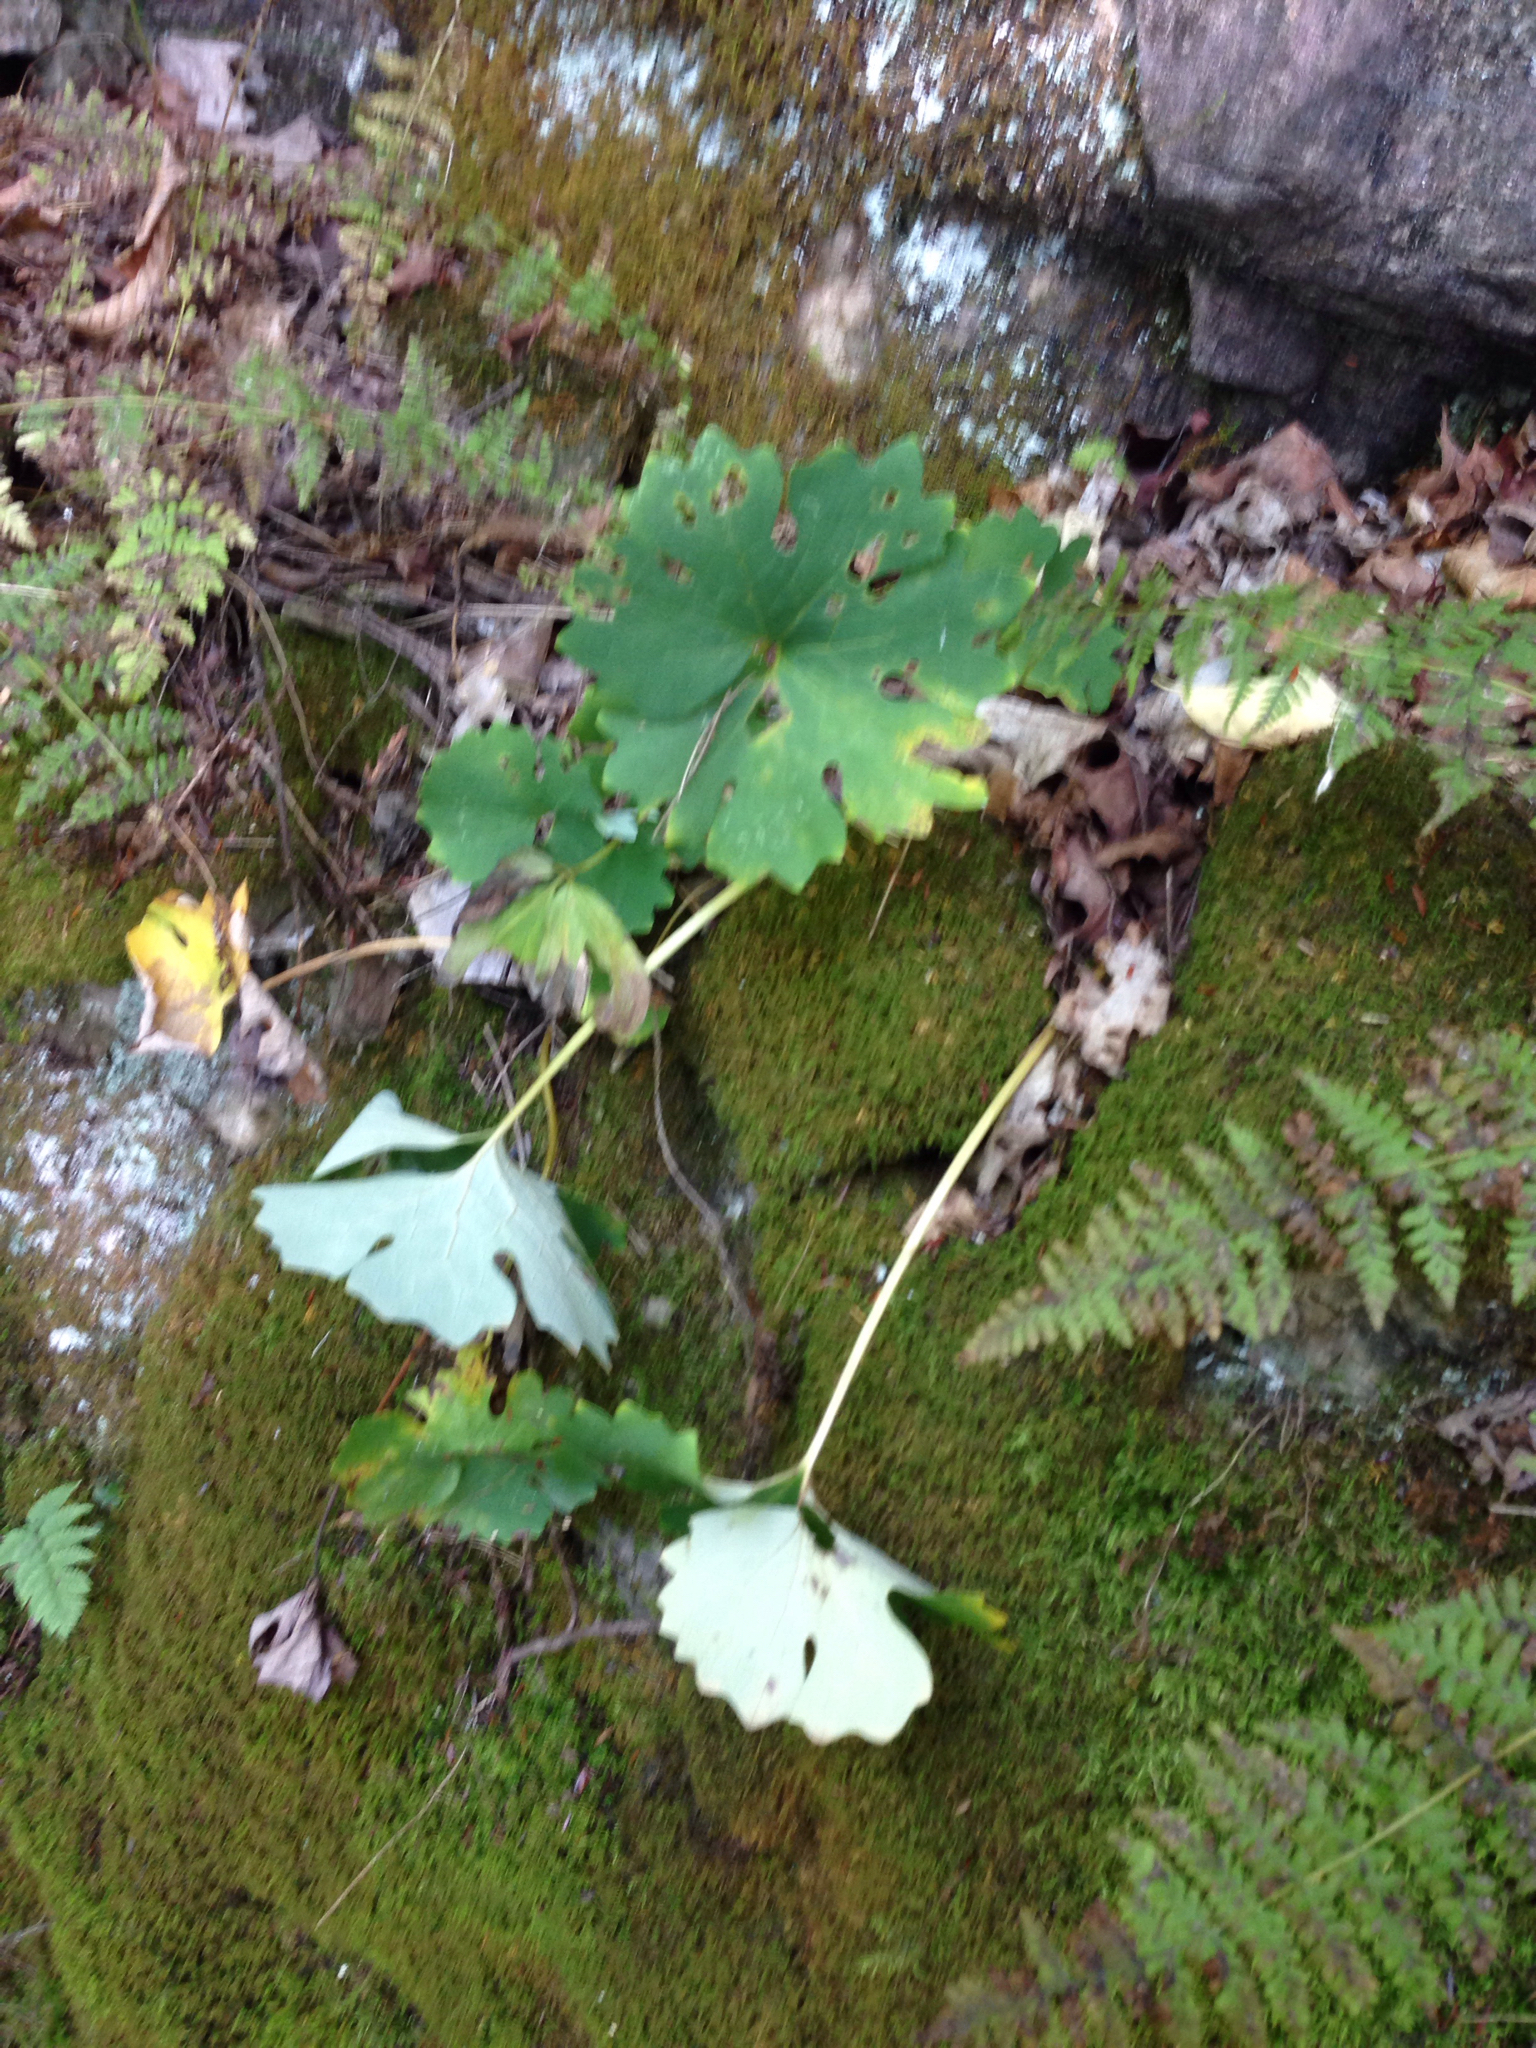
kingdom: Plantae
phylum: Tracheophyta
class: Magnoliopsida
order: Ranunculales
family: Papaveraceae
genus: Sanguinaria
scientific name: Sanguinaria canadensis
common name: Bloodroot
